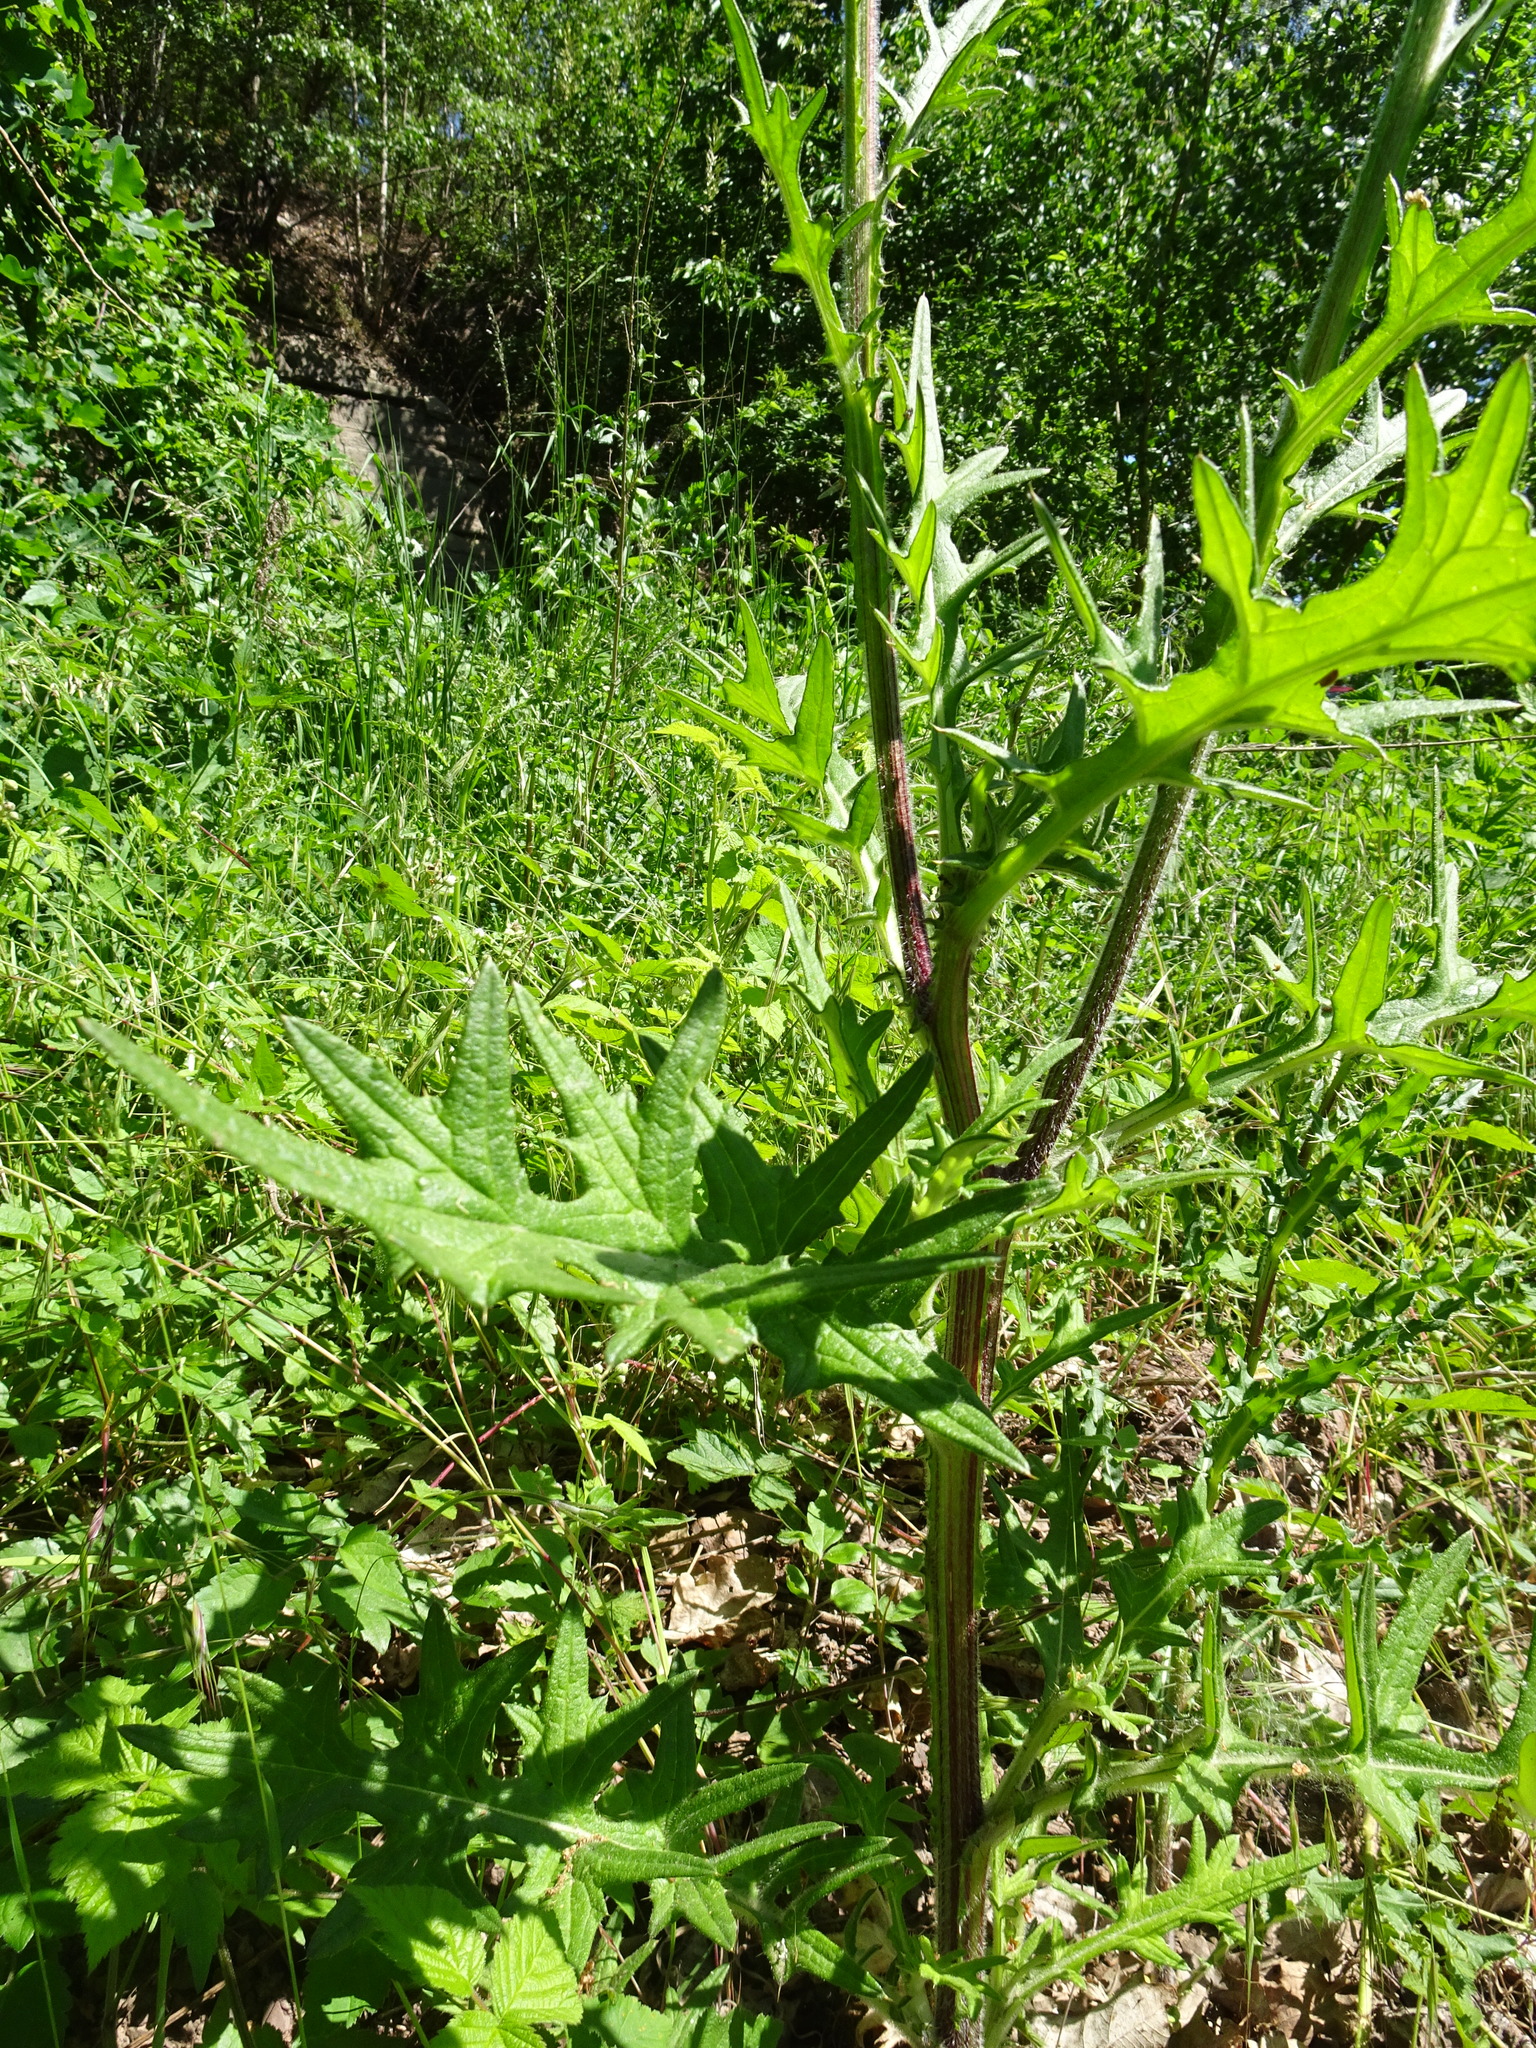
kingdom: Plantae
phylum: Tracheophyta
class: Magnoliopsida
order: Asterales
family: Asteraceae
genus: Cirsium
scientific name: Cirsium vulgare
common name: Bull thistle
